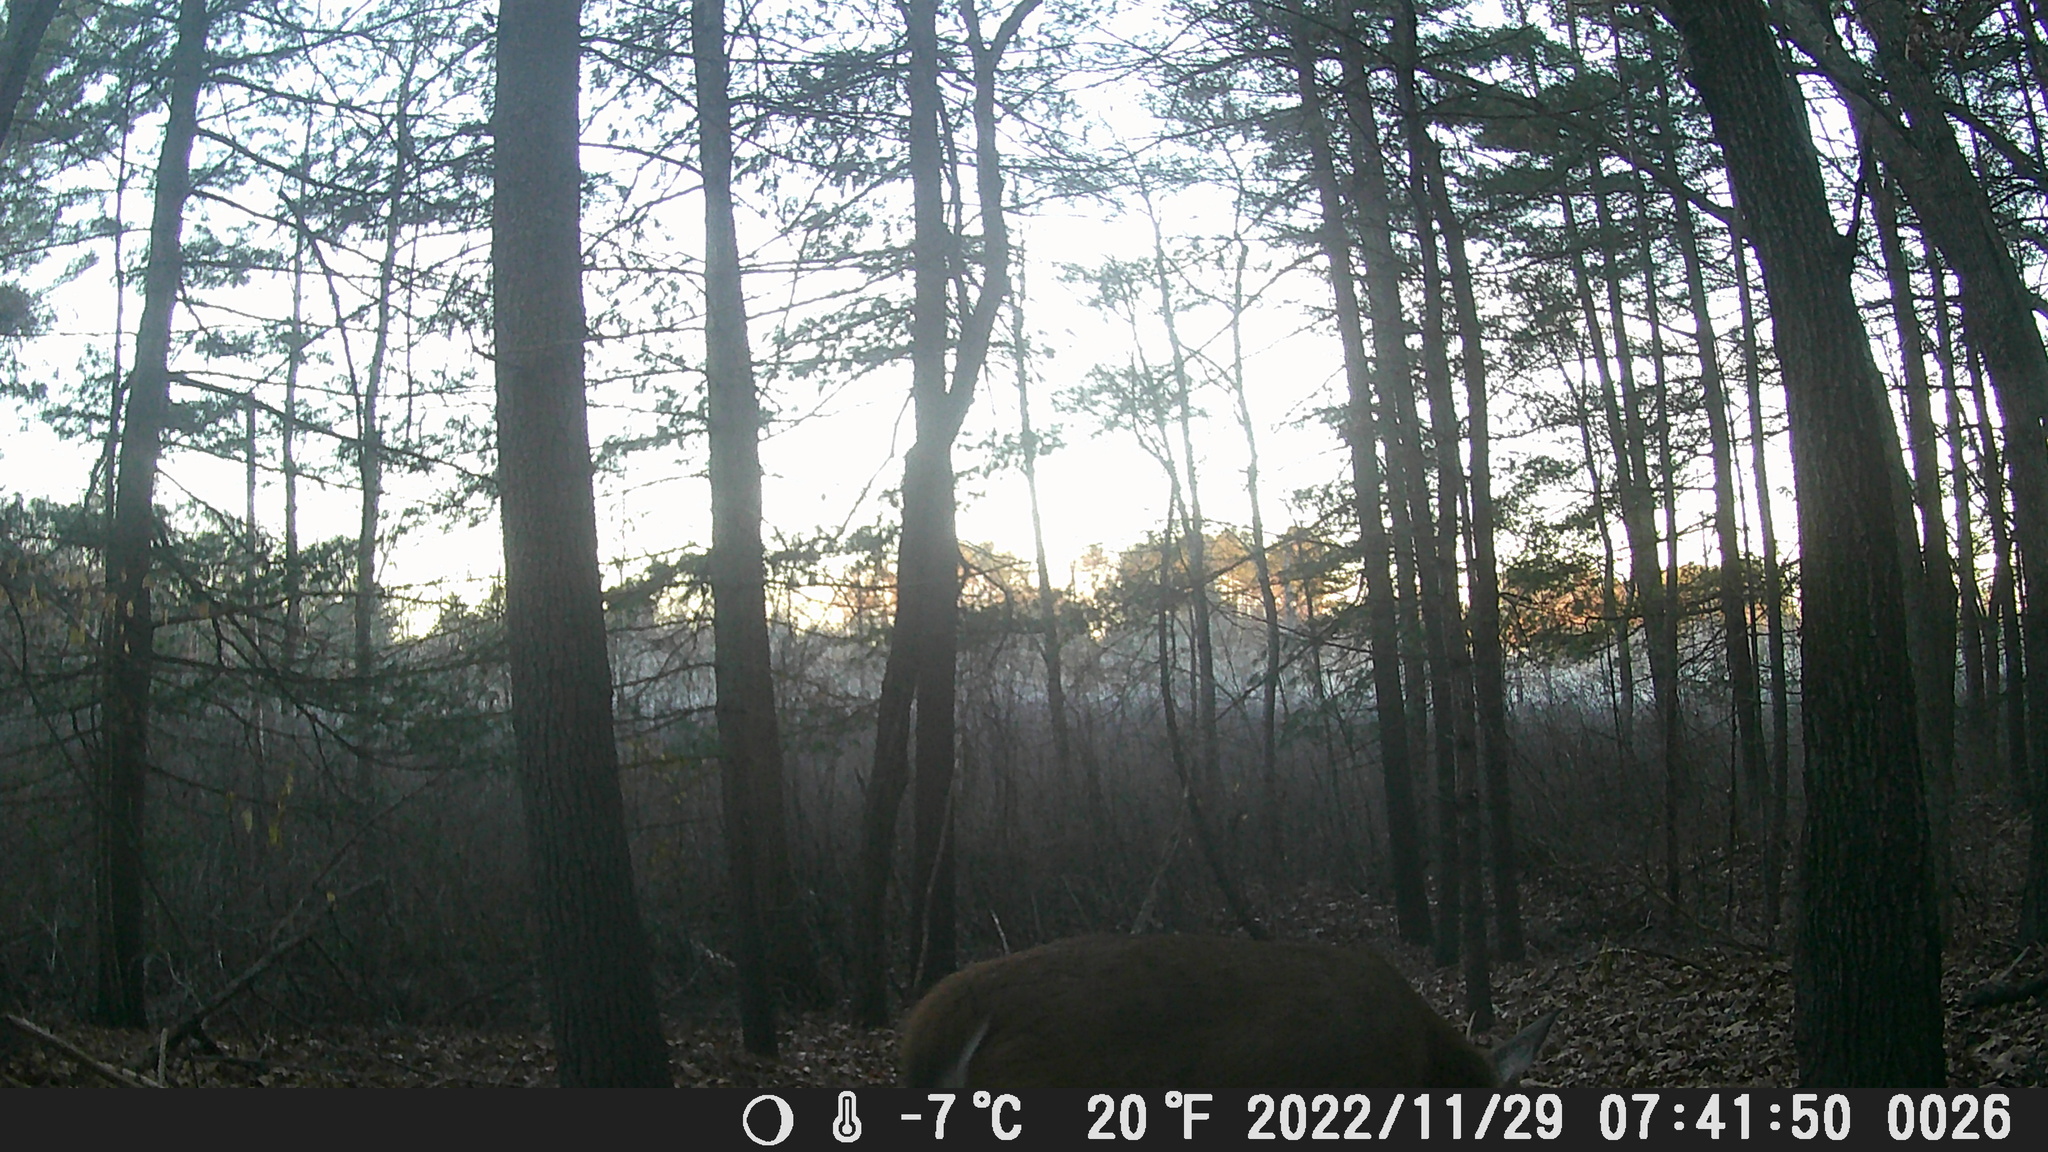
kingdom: Animalia
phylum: Chordata
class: Mammalia
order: Artiodactyla
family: Cervidae
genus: Odocoileus
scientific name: Odocoileus virginianus
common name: White-tailed deer
